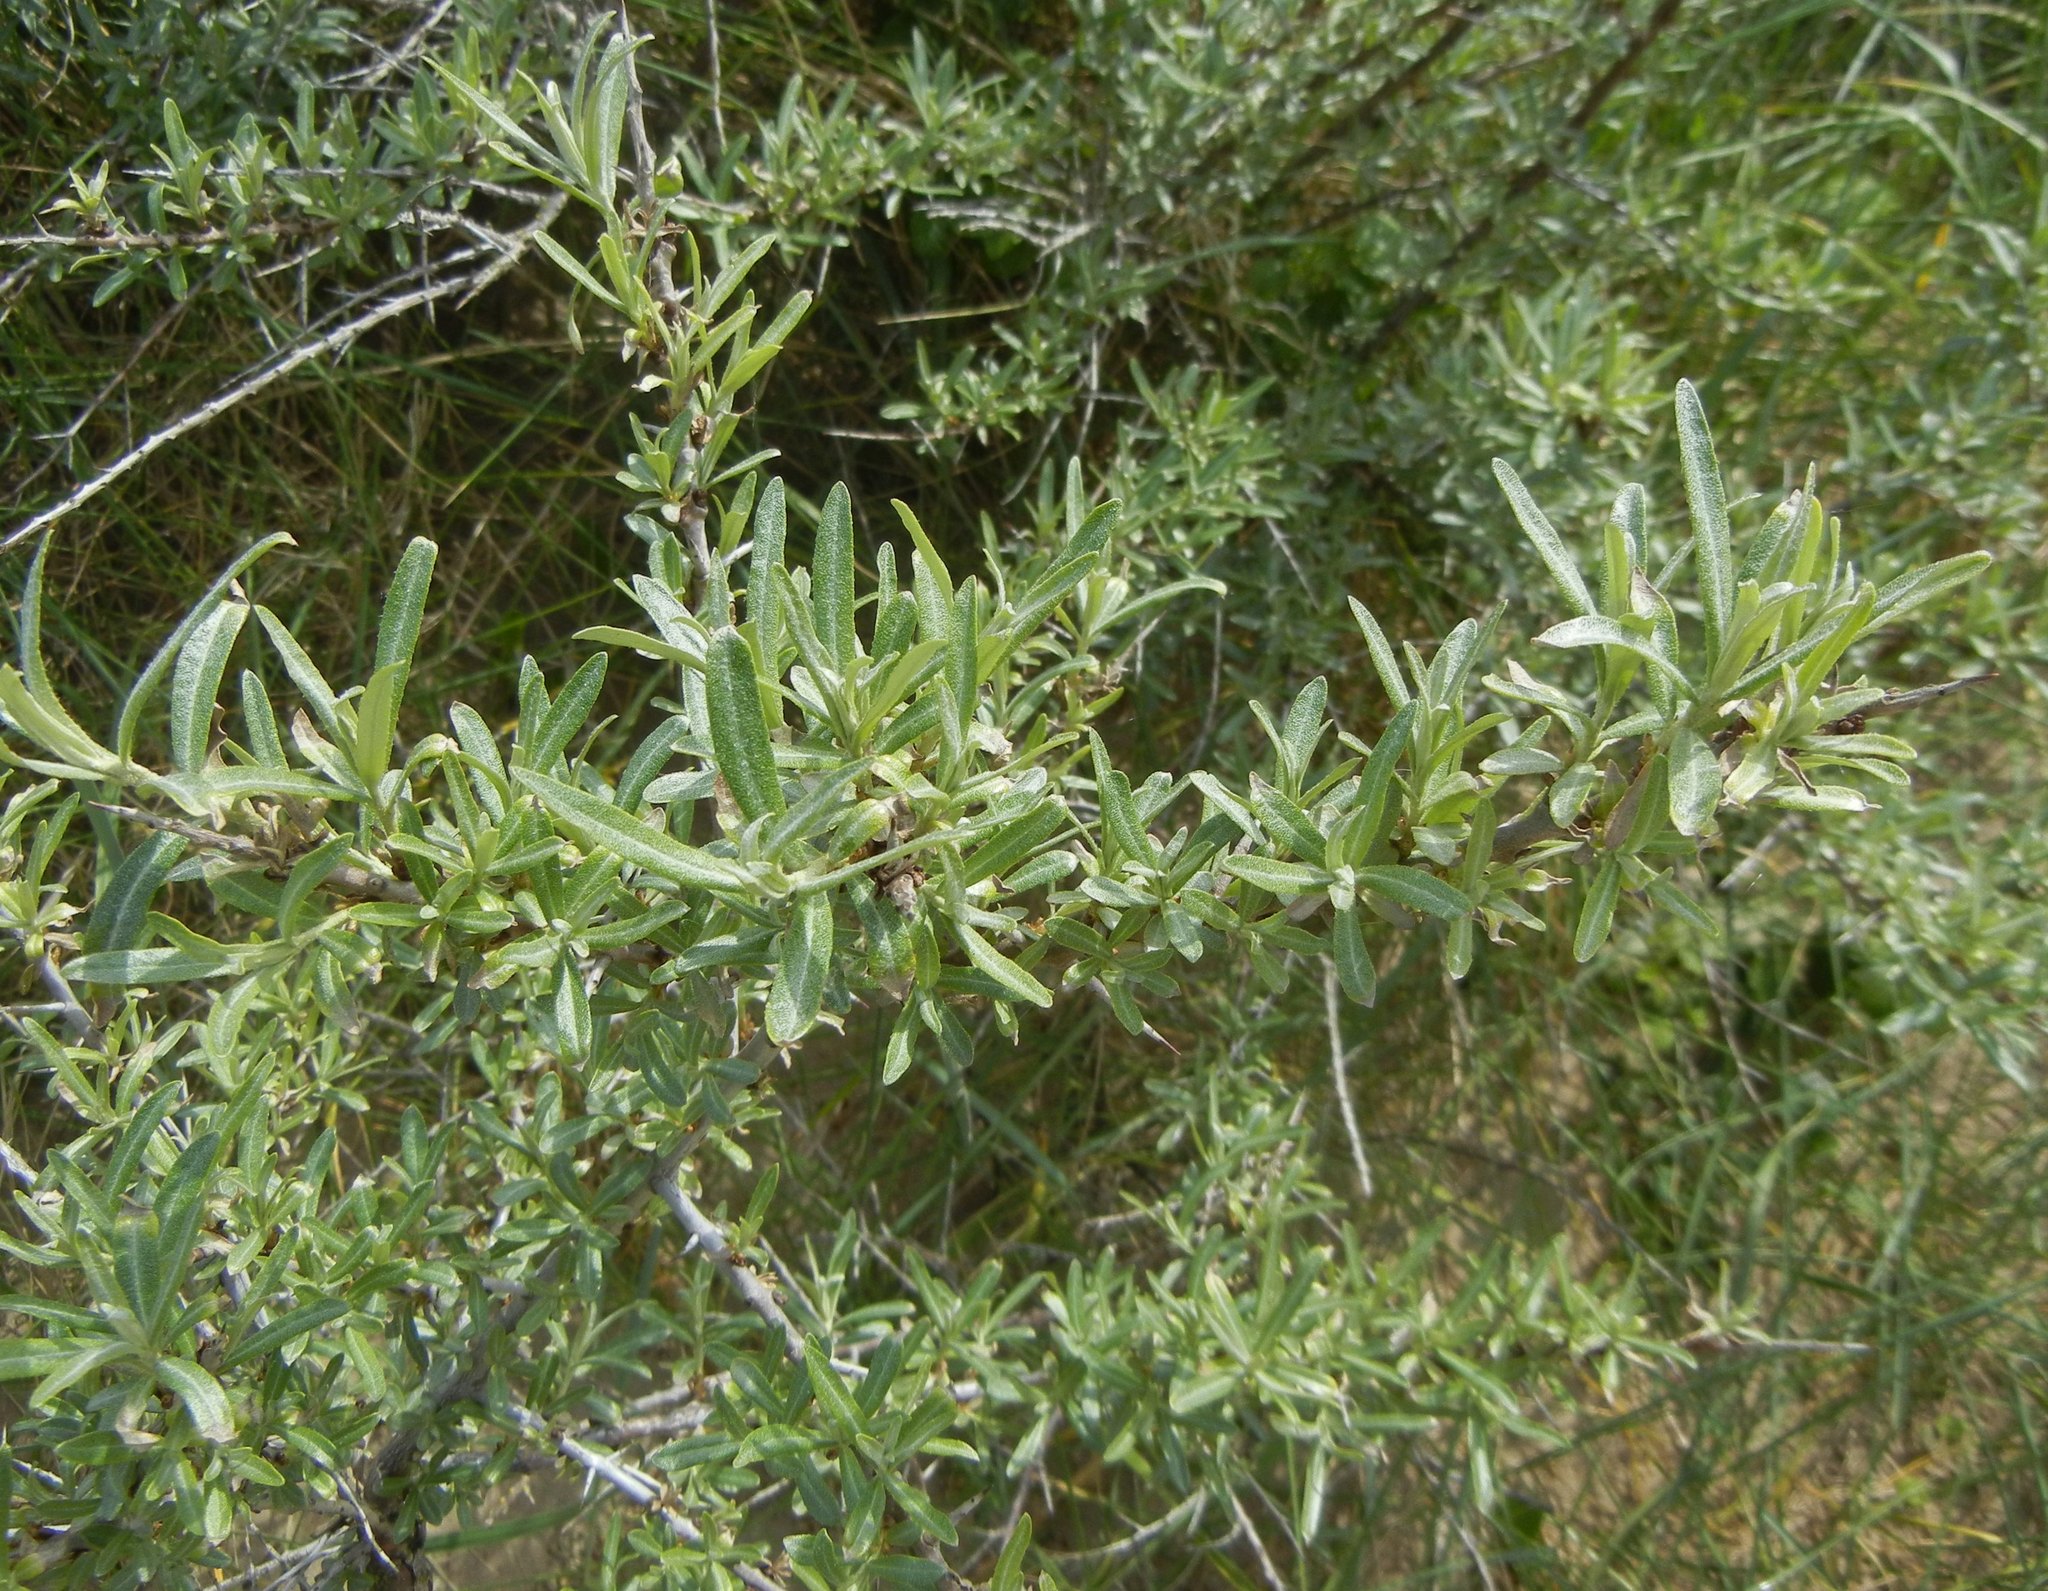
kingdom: Plantae
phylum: Tracheophyta
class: Magnoliopsida
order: Rosales
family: Elaeagnaceae
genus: Hippophae
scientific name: Hippophae rhamnoides
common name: Sea-buckthorn
